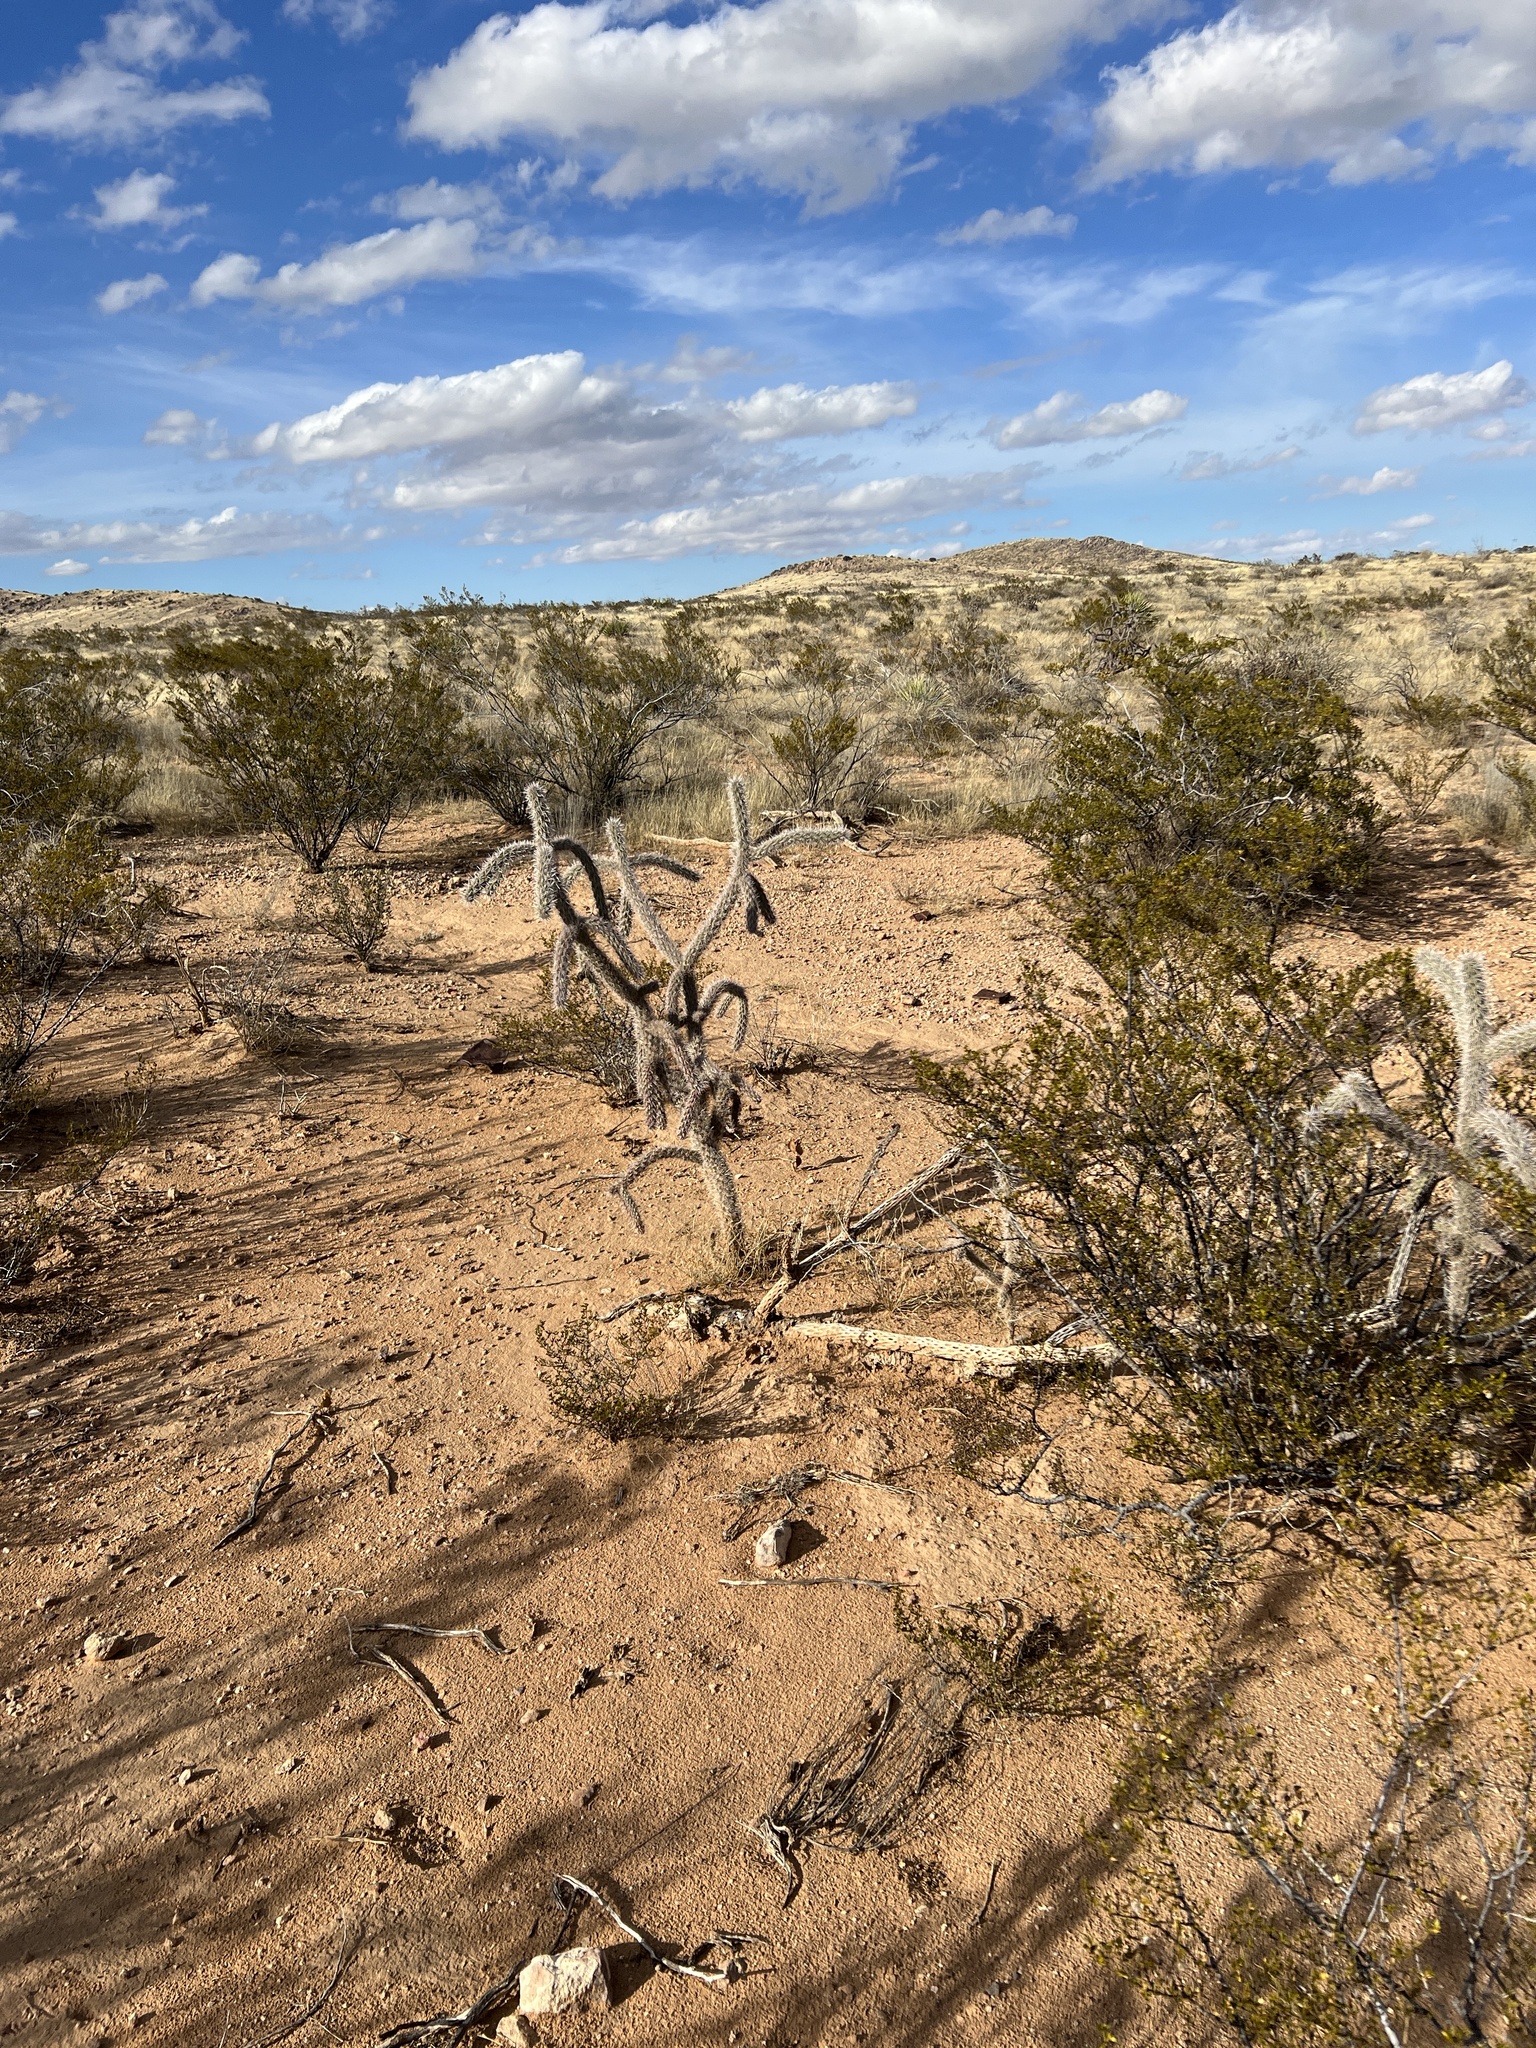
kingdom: Plantae
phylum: Tracheophyta
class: Magnoliopsida
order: Caryophyllales
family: Cactaceae
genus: Cylindropuntia
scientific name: Cylindropuntia imbricata
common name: Candelabrum cactus
